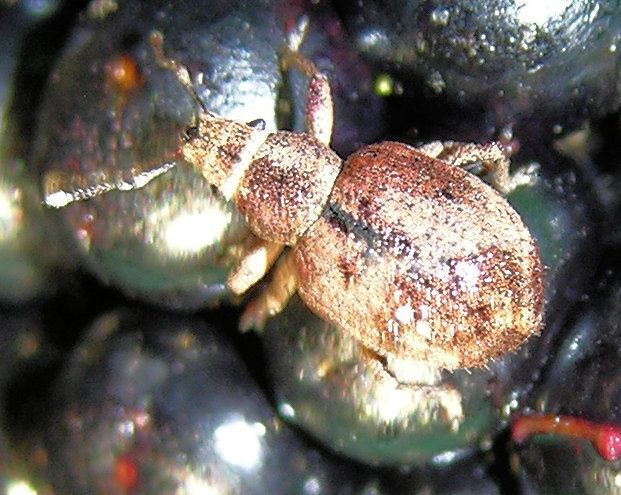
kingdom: Animalia
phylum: Arthropoda
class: Insecta
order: Coleoptera
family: Curculionidae
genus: Strophosoma
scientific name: Strophosoma melanogrammum
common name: Weevil
